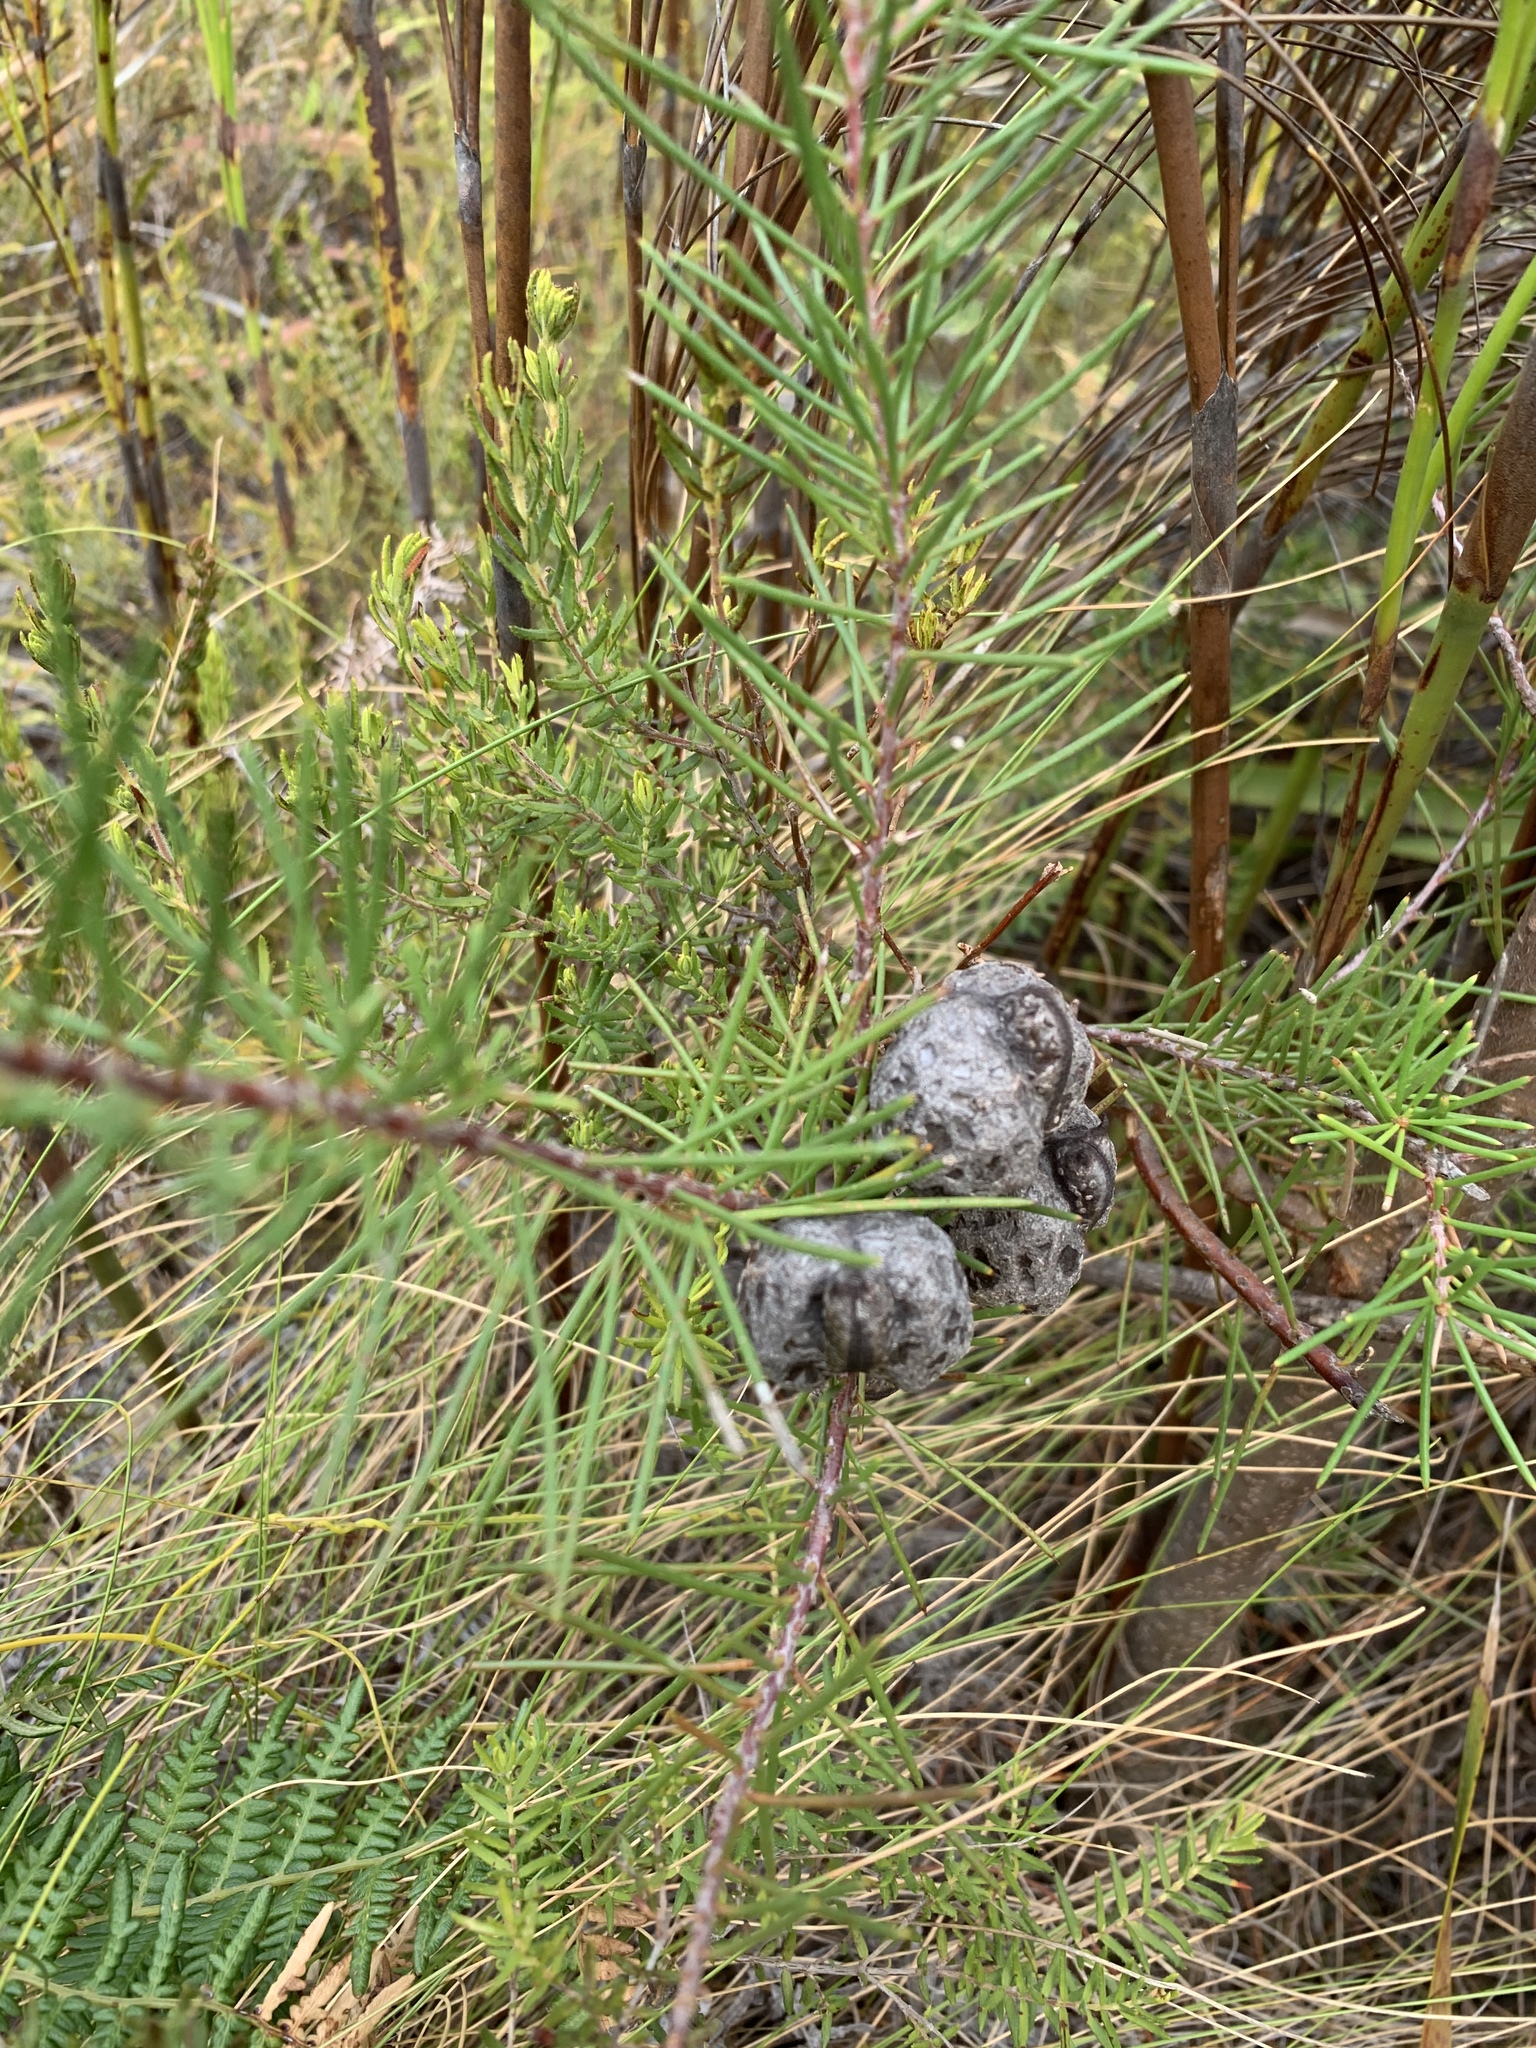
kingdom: Plantae
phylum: Tracheophyta
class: Magnoliopsida
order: Proteales
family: Proteaceae
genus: Hakea
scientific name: Hakea sericea
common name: Needle bush
